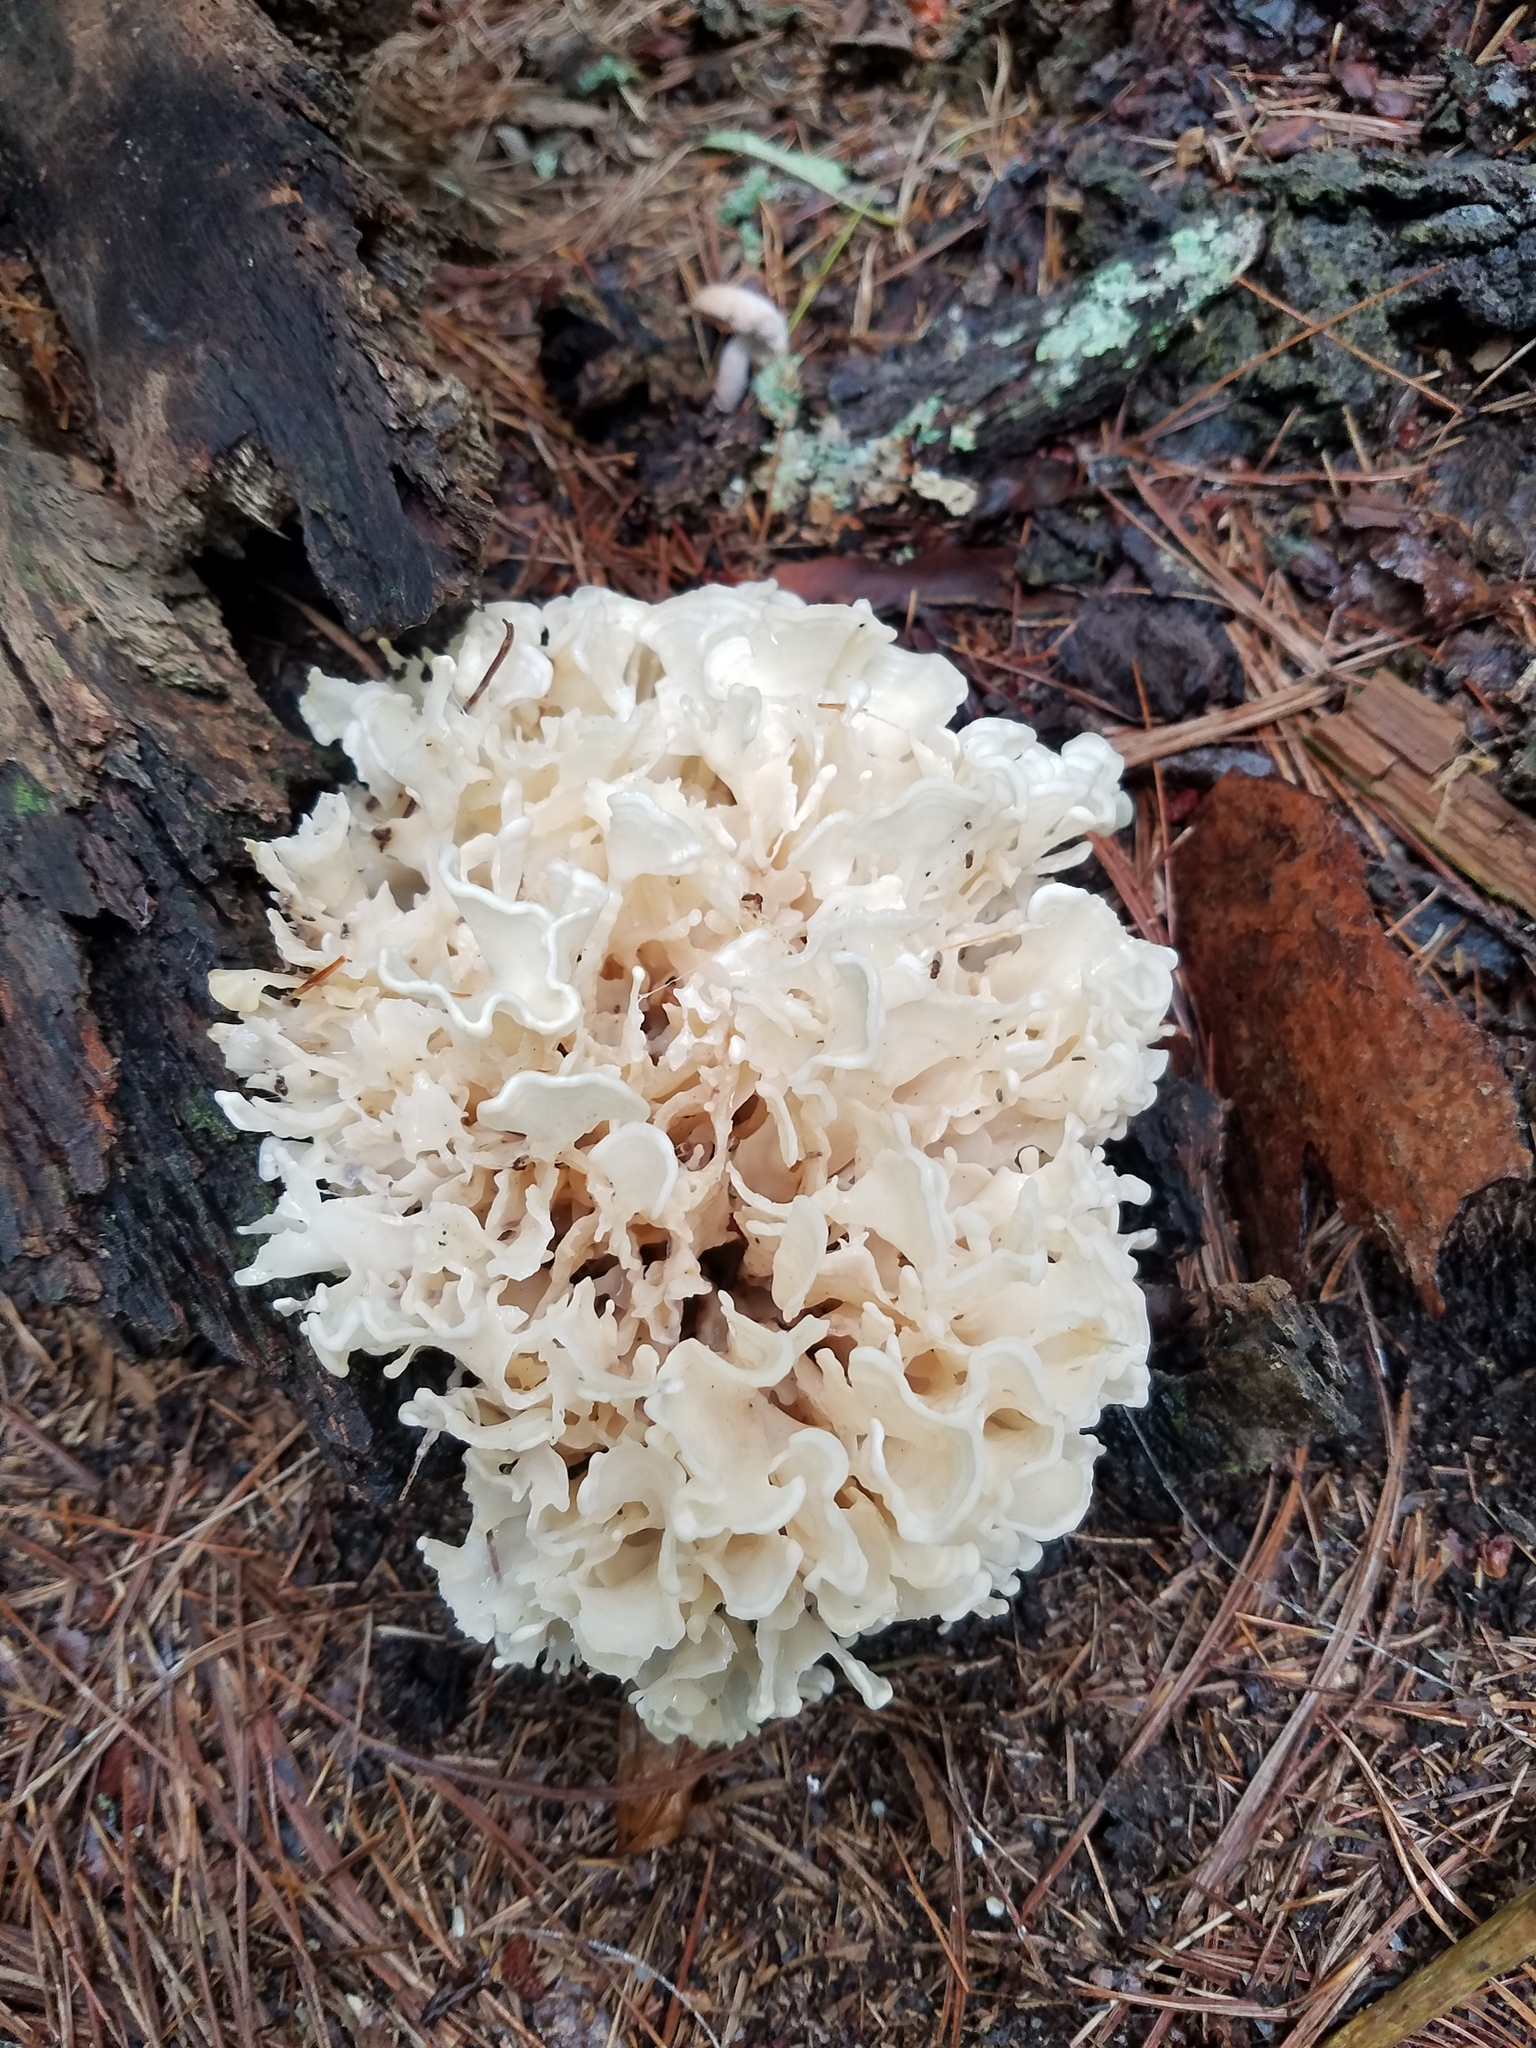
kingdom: Fungi
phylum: Basidiomycota
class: Agaricomycetes
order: Polyporales
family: Sparassidaceae
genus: Sparassis
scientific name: Sparassis spathulata
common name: Eastern cauliflower mushroom
